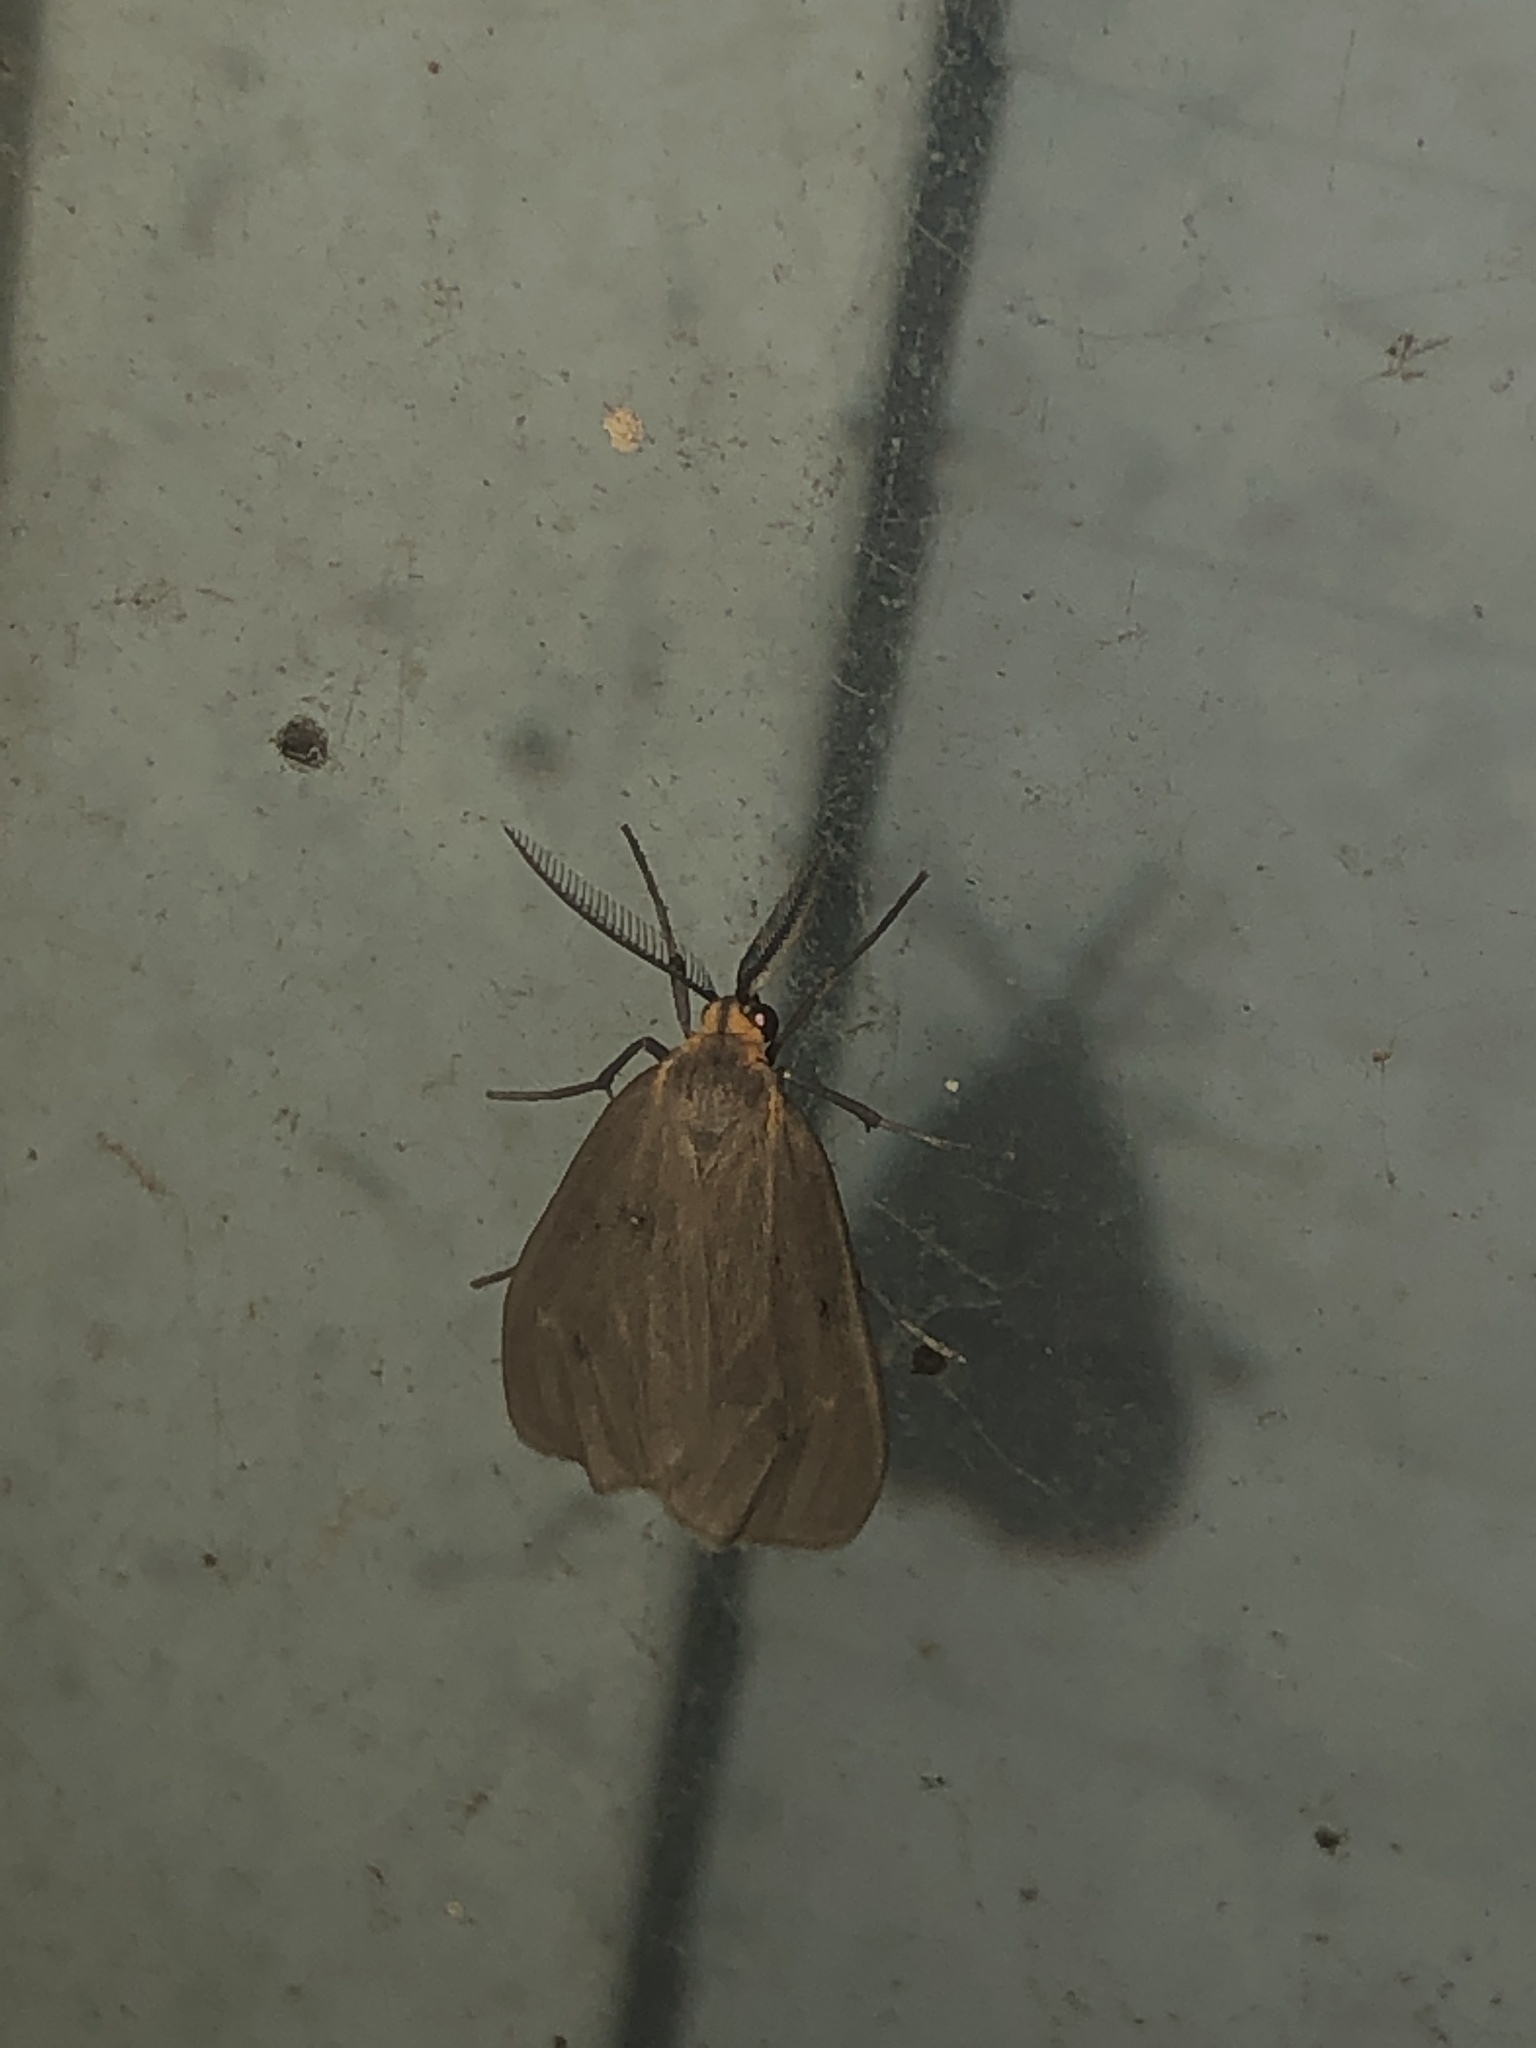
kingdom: Animalia
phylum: Arthropoda
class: Insecta
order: Lepidoptera
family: Erebidae
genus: Pagara
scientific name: Pagara simplex
